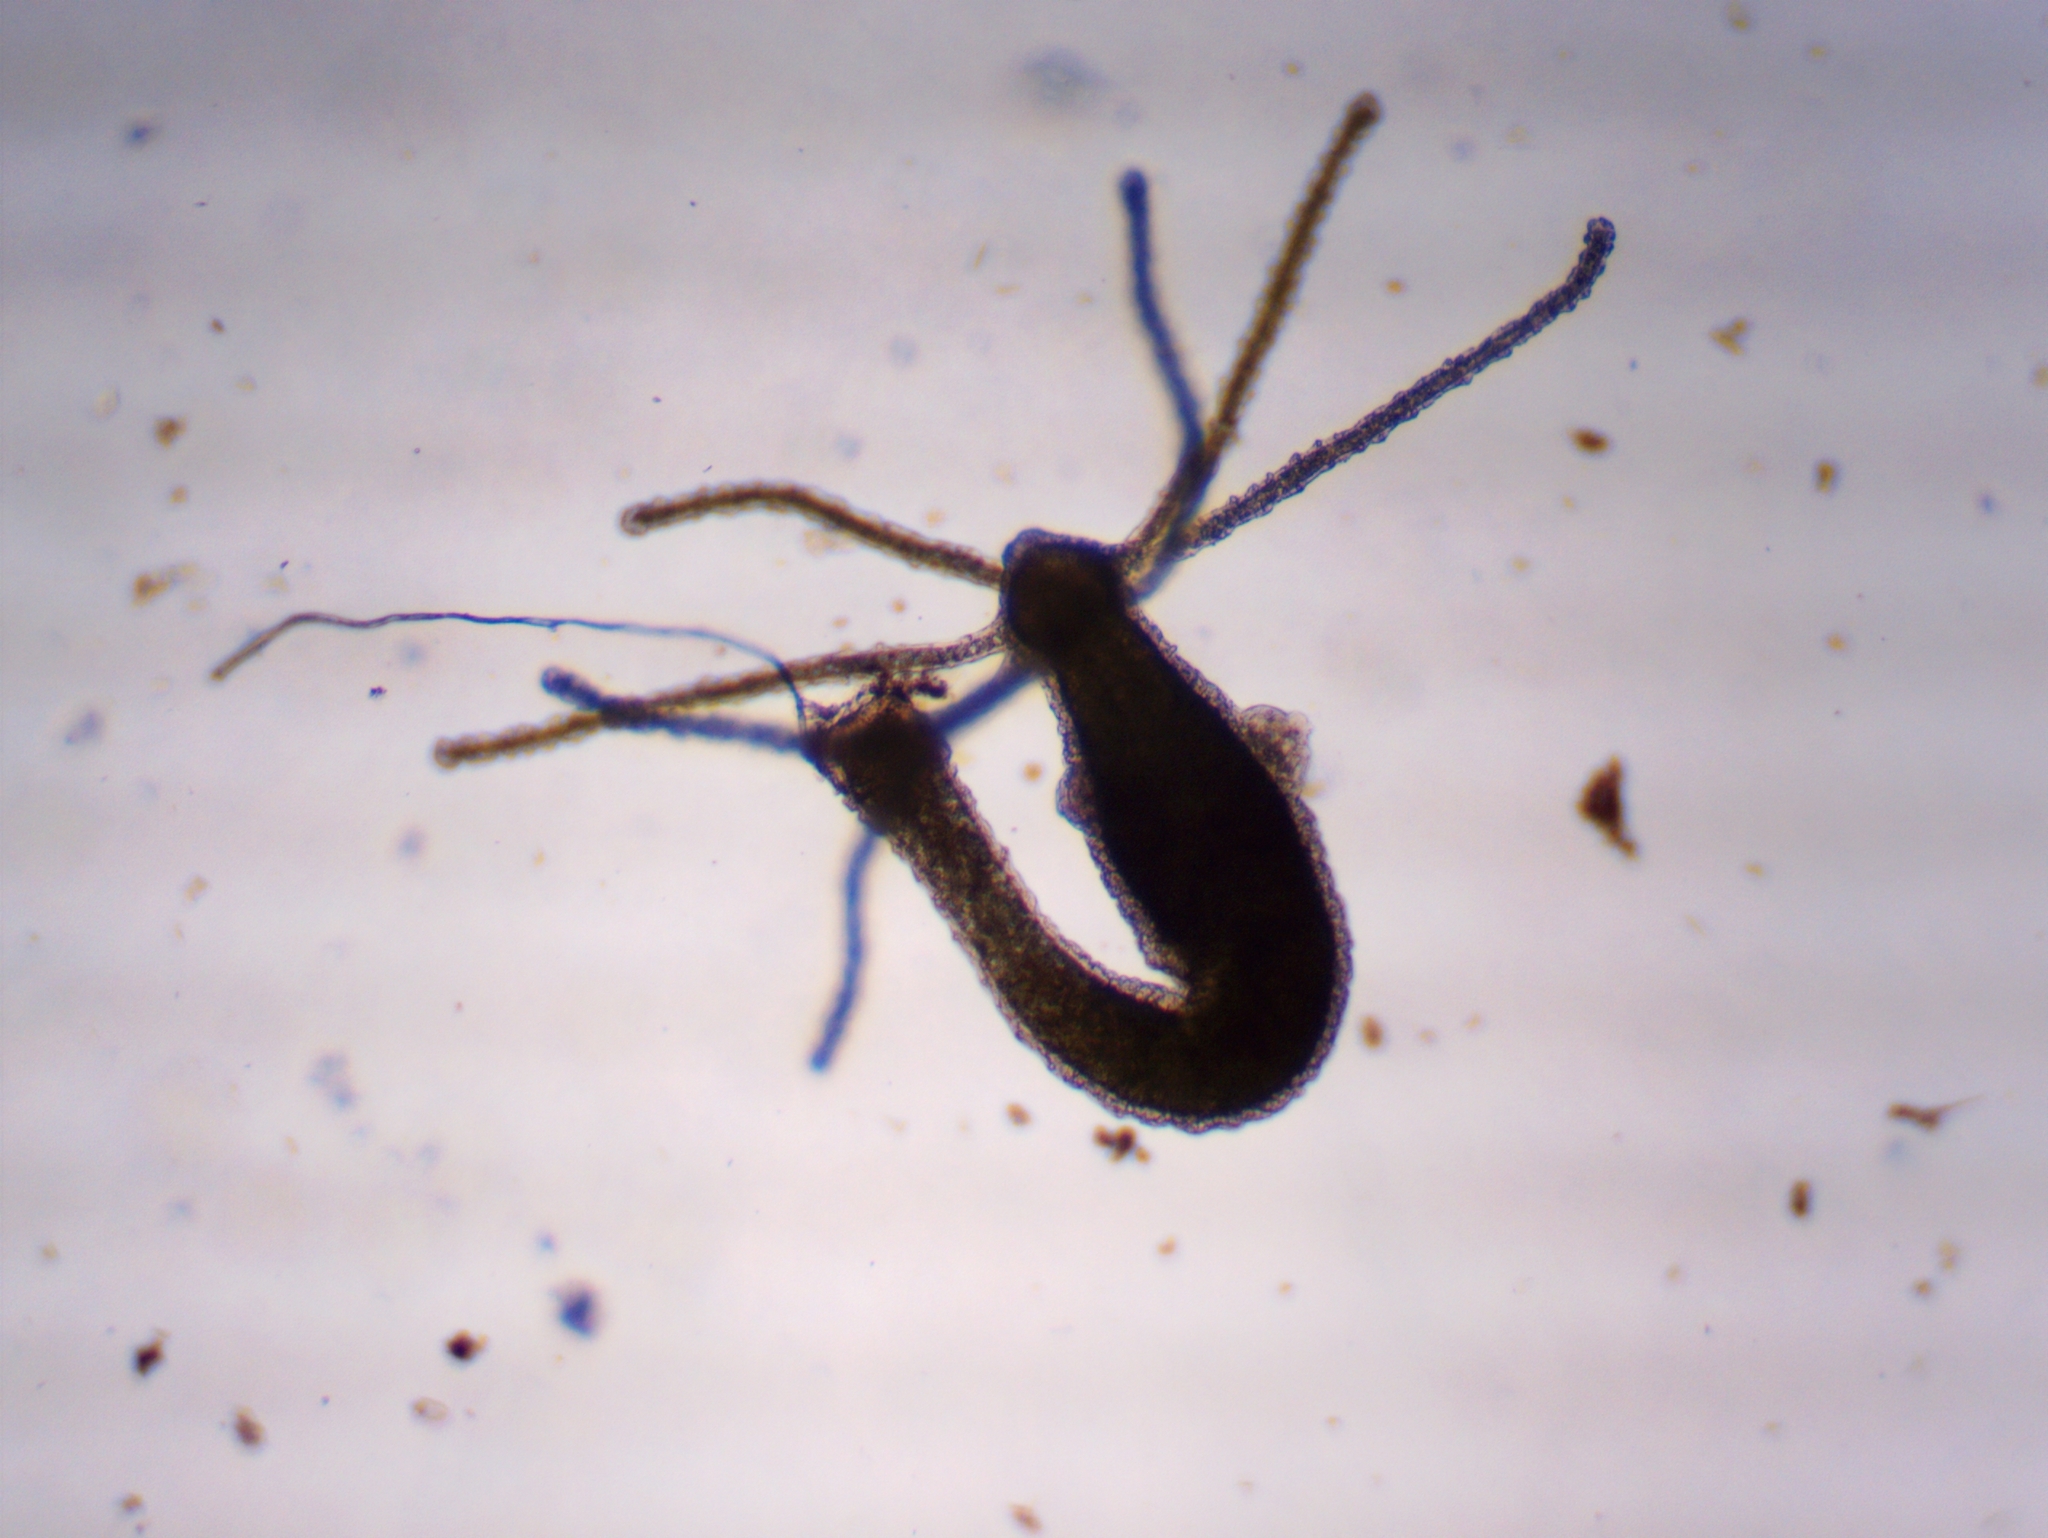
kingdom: Animalia
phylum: Cnidaria
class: Hydrozoa
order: Anthoathecata
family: Hydridae
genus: Hydra
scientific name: Hydra viridissima
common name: Green hydra
